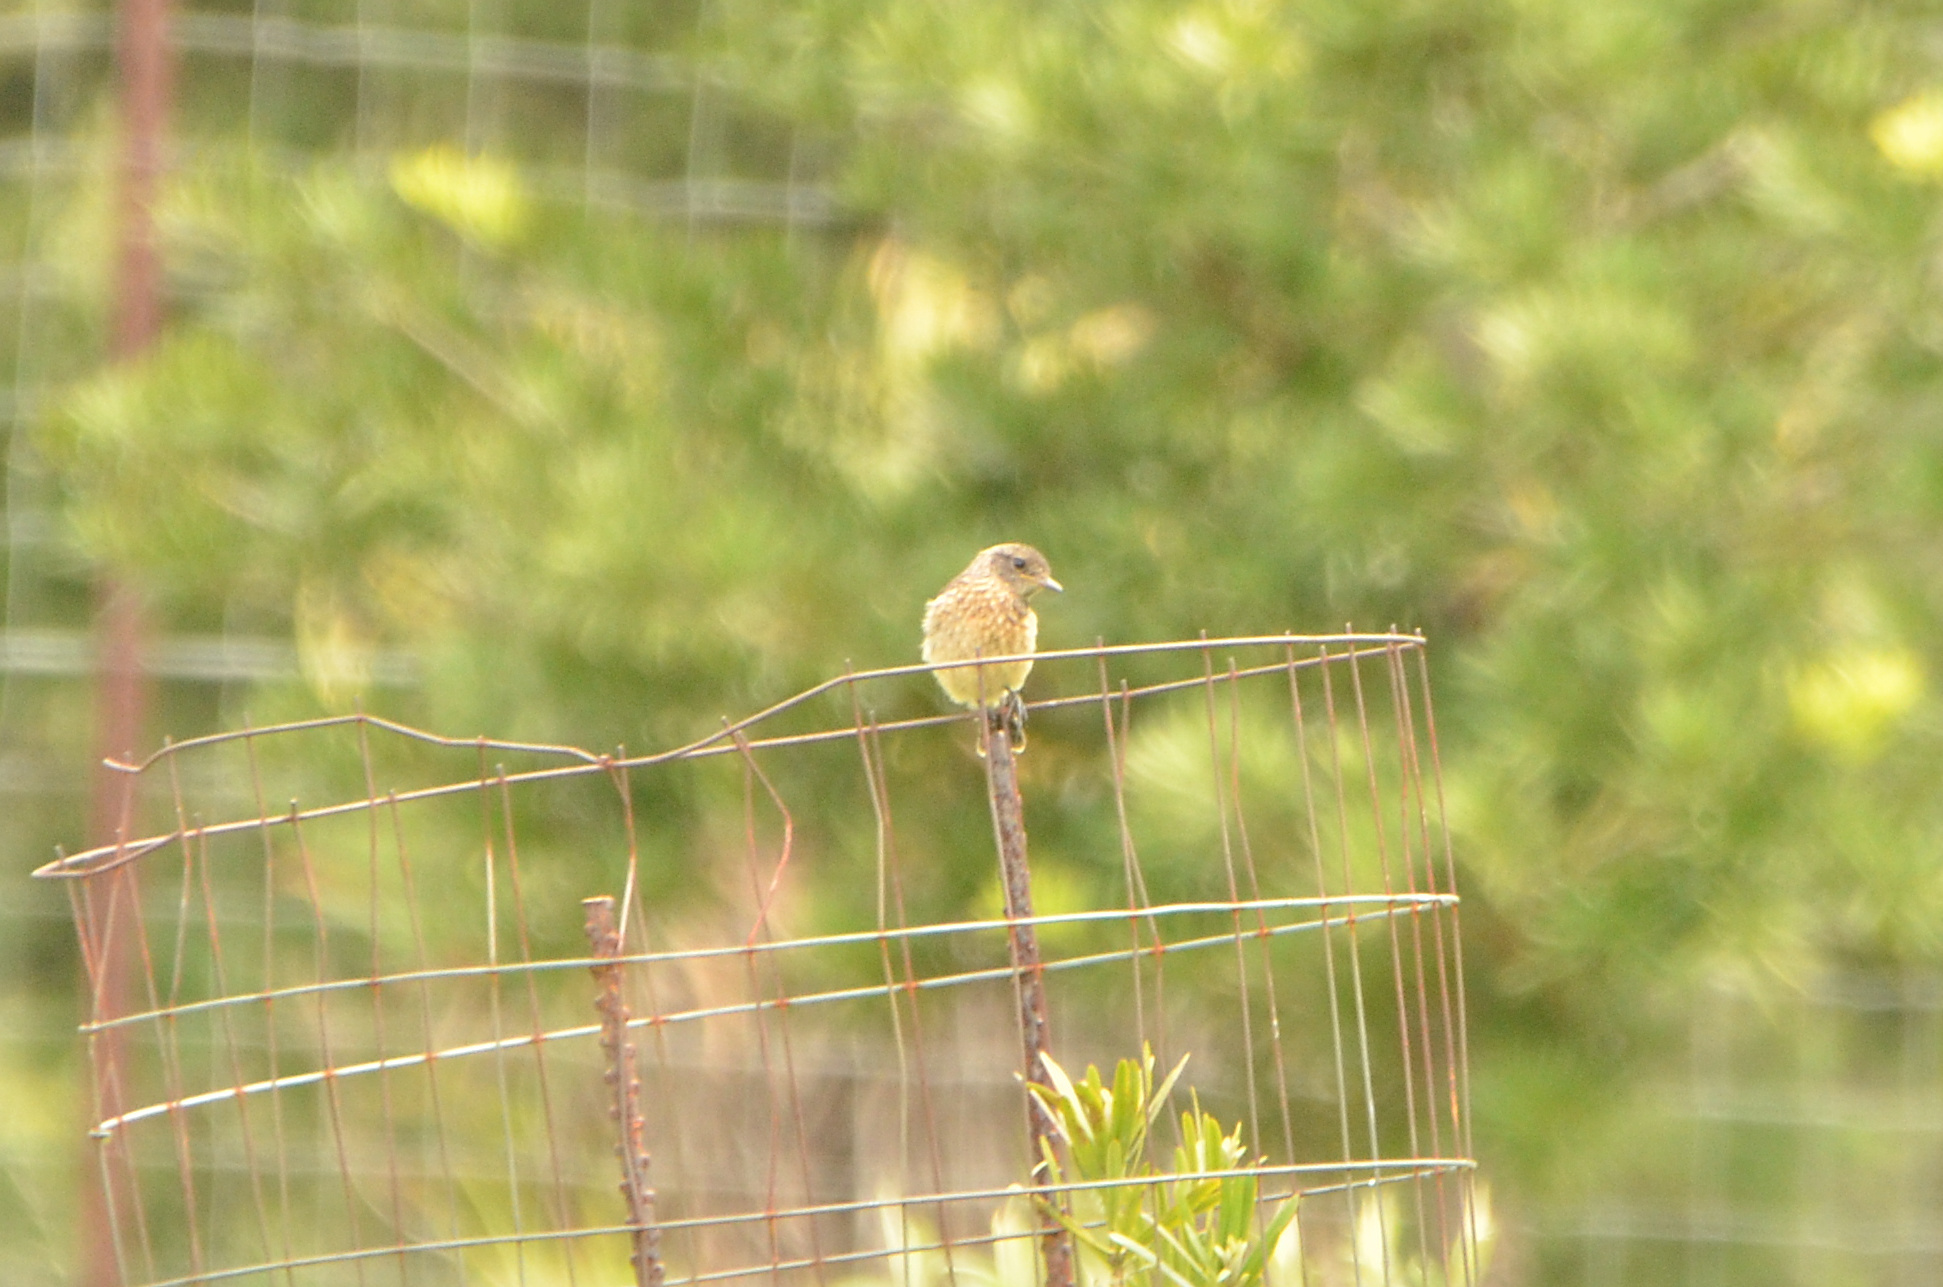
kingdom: Animalia
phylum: Chordata
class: Aves
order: Passeriformes
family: Muscicapidae
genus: Saxicola
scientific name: Saxicola torquatus
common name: African stonechat
